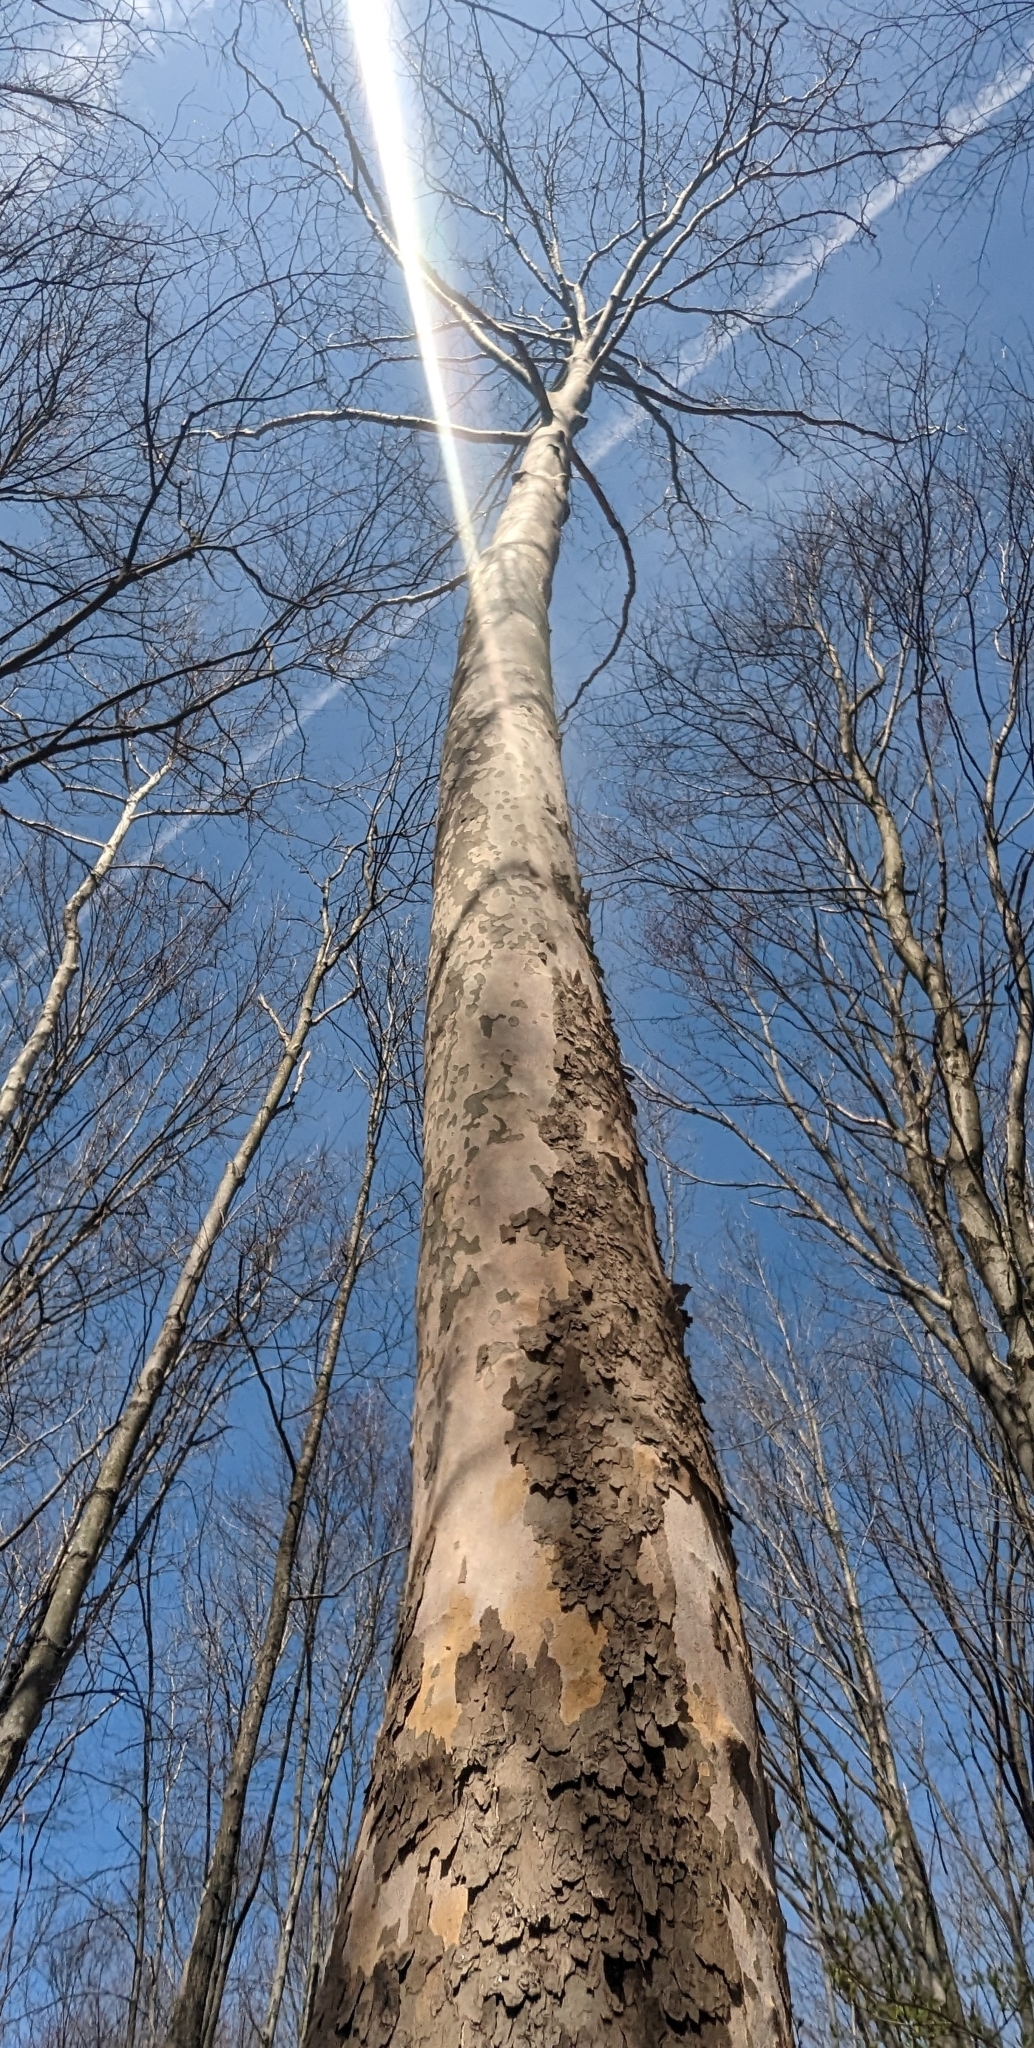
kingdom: Plantae
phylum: Tracheophyta
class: Magnoliopsida
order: Proteales
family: Platanaceae
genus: Platanus
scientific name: Platanus occidentalis
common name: American sycamore
